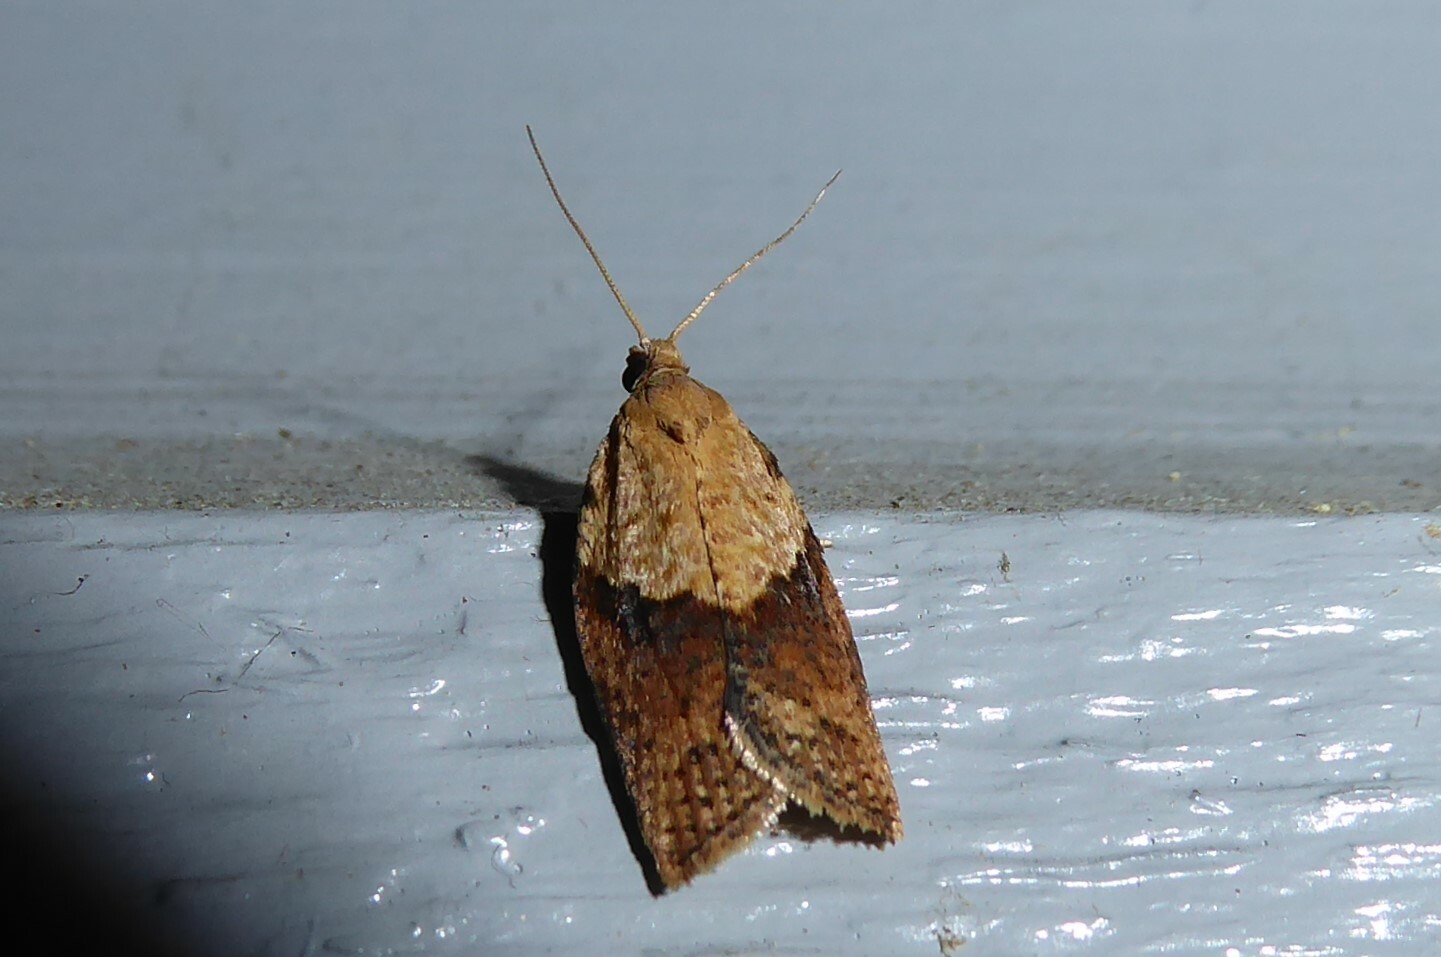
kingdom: Animalia
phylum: Arthropoda
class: Insecta
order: Lepidoptera
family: Tortricidae
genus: Epiphyas
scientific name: Epiphyas postvittana
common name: Light brown apple moth
